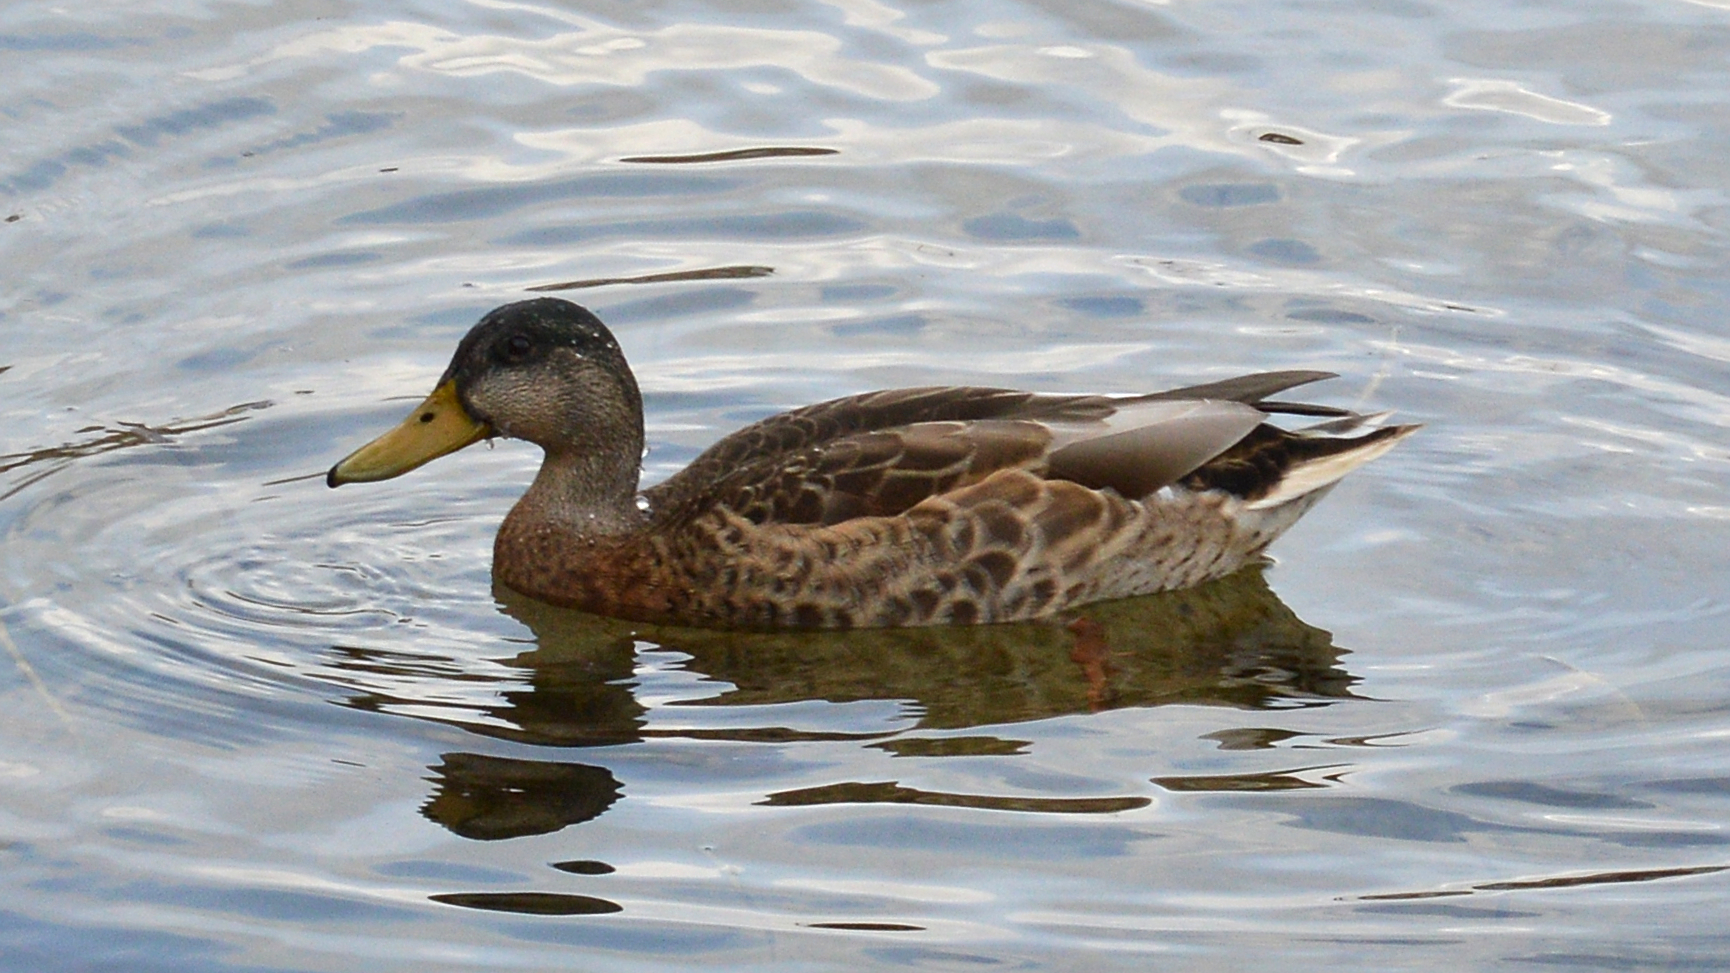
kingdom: Animalia
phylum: Chordata
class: Aves
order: Anseriformes
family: Anatidae
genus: Anas
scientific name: Anas platyrhynchos
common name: Mallard
